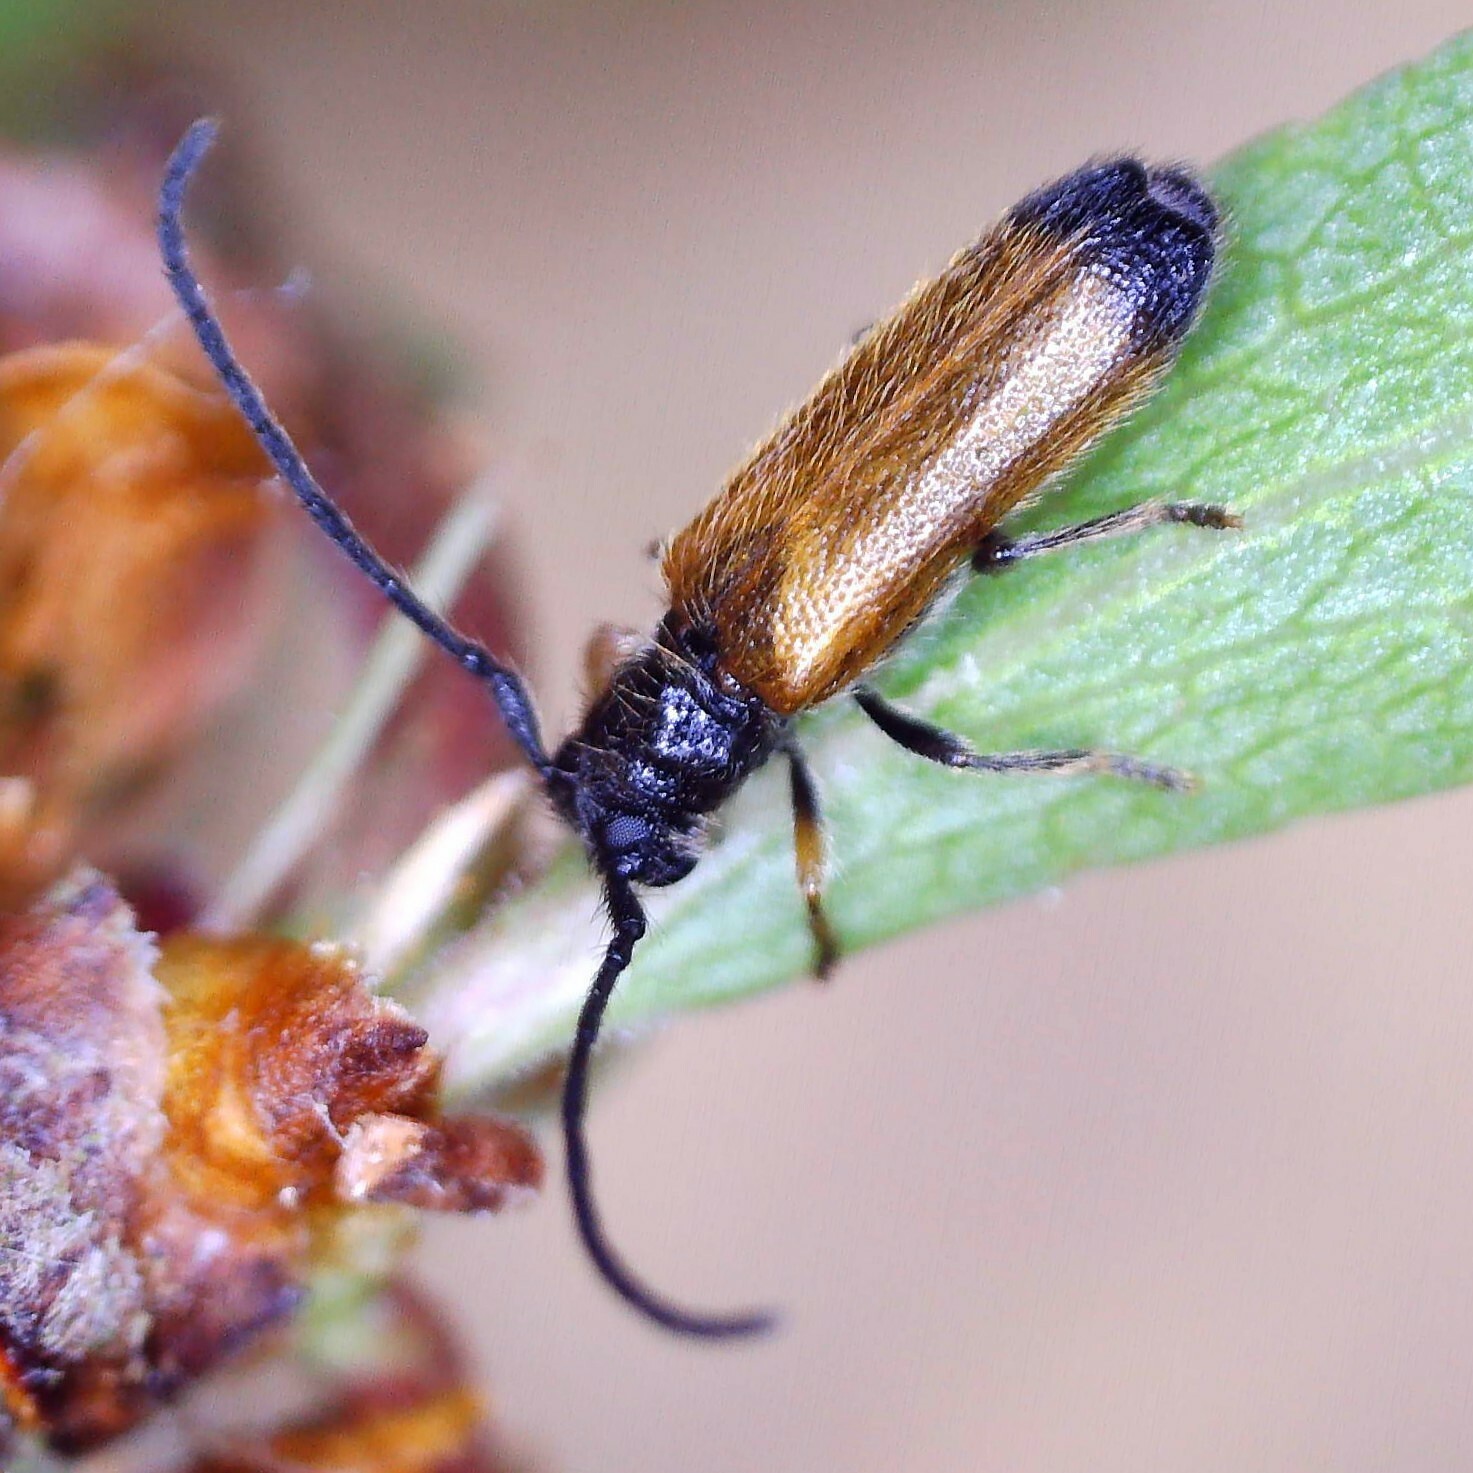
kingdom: Animalia
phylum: Arthropoda
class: Insecta
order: Coleoptera
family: Cerambycidae
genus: Tetrops
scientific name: Tetrops praeustus
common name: Plum beetle
